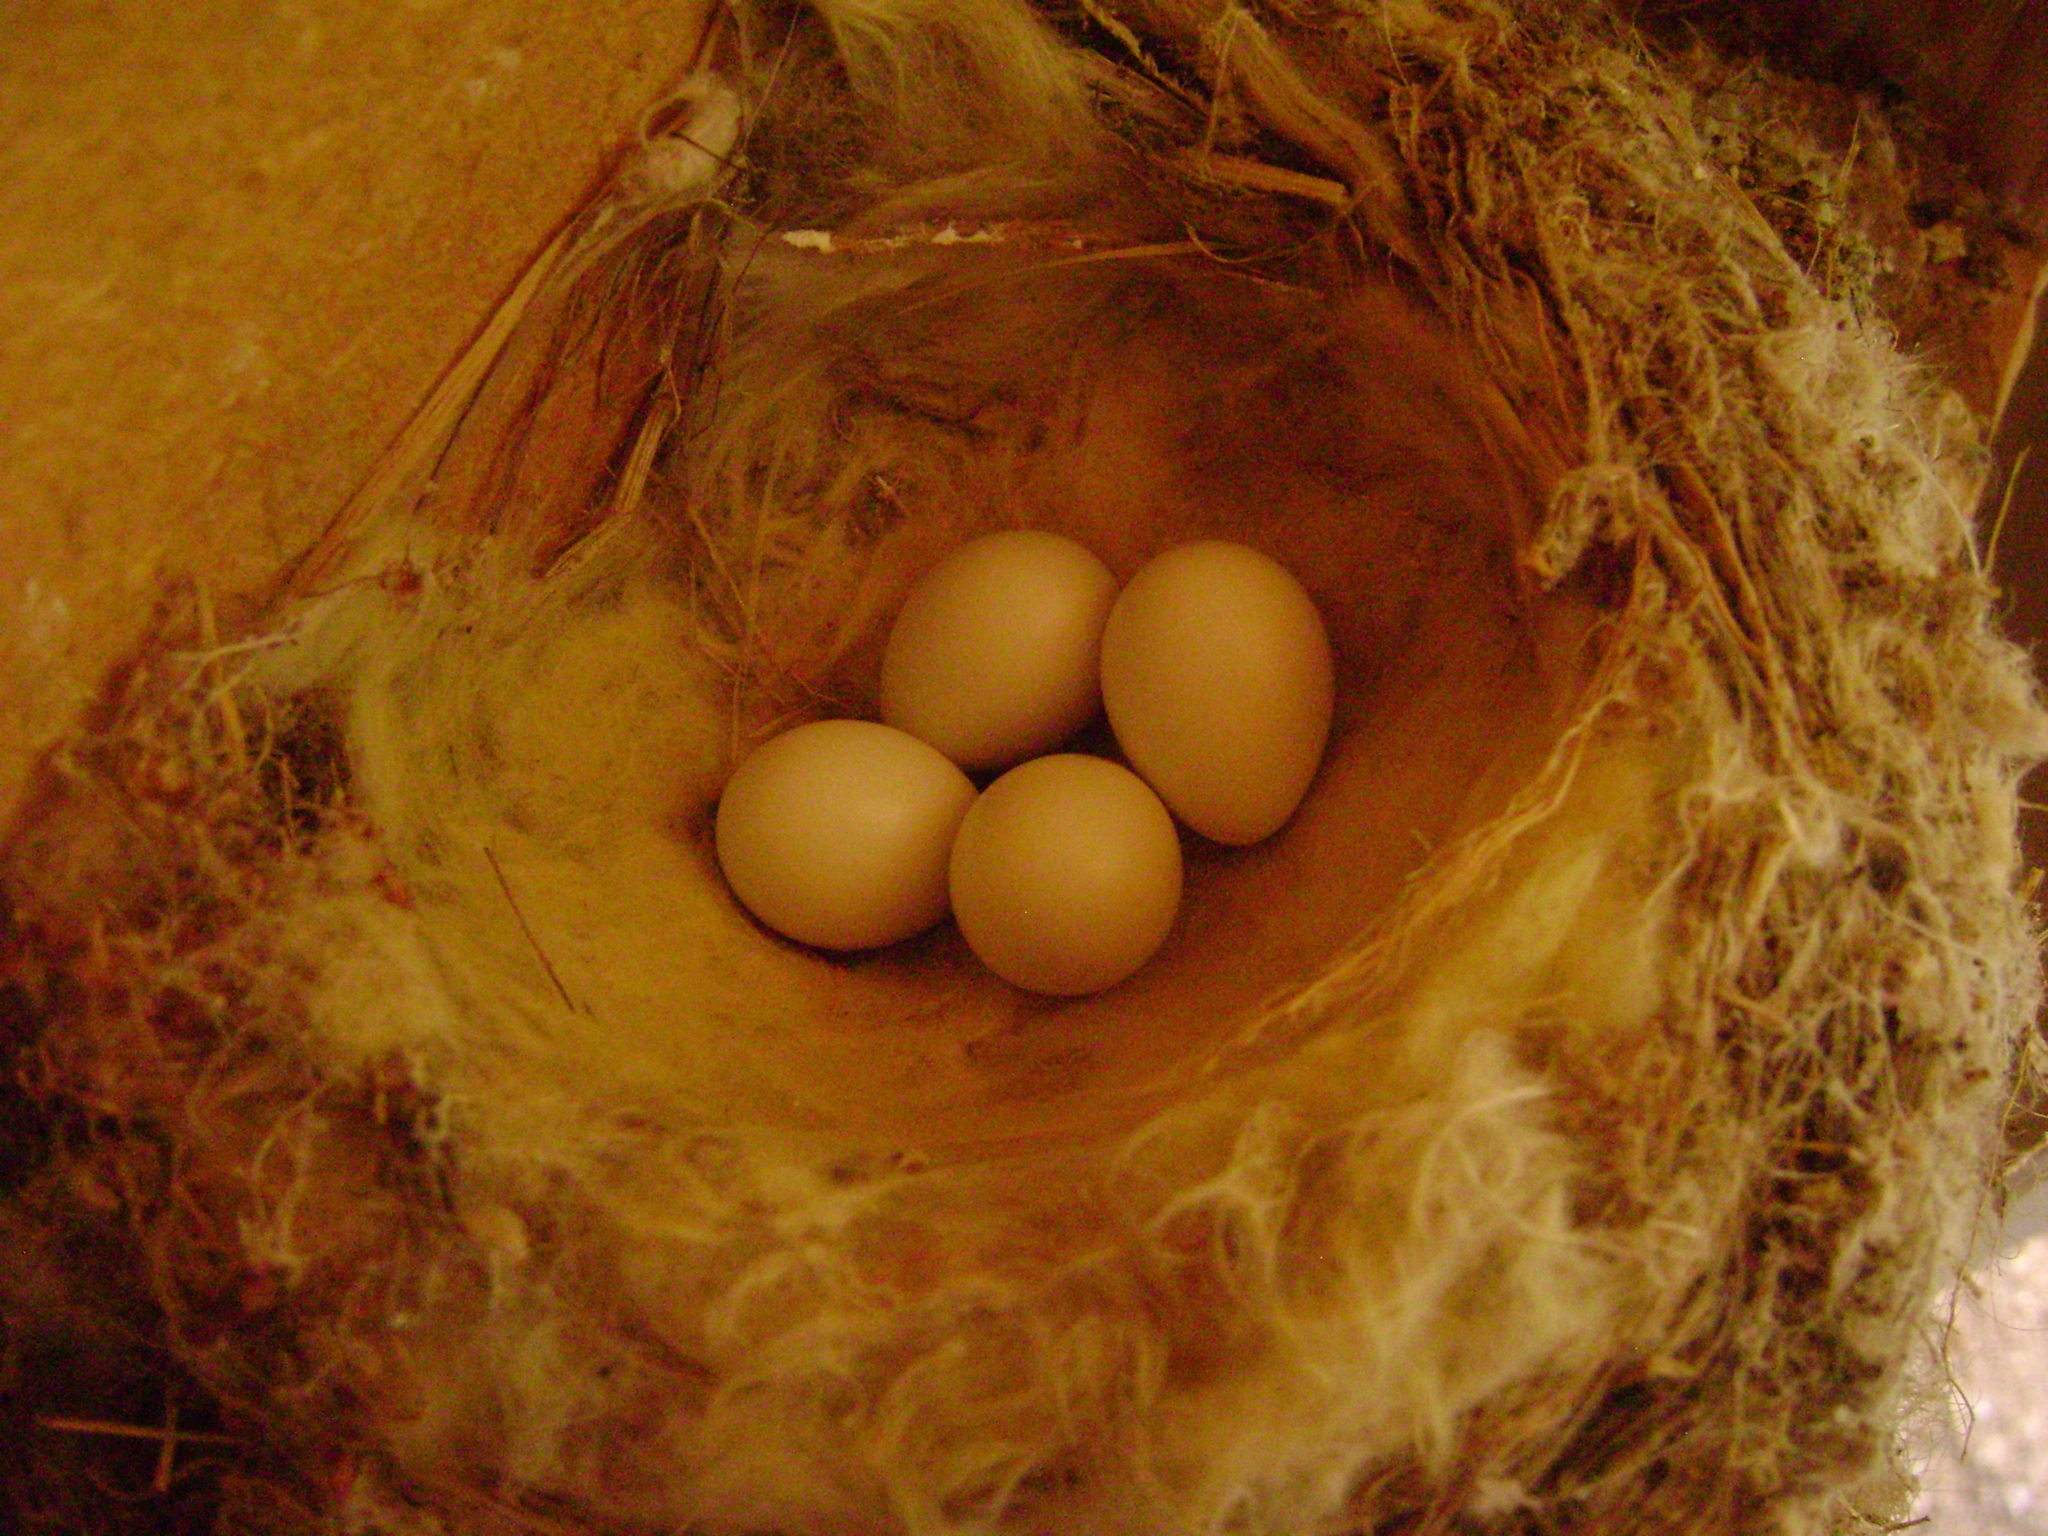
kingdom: Animalia
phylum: Chordata
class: Aves
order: Passeriformes
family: Tyrannidae
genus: Sayornis
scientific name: Sayornis saya
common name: Say's phoebe
